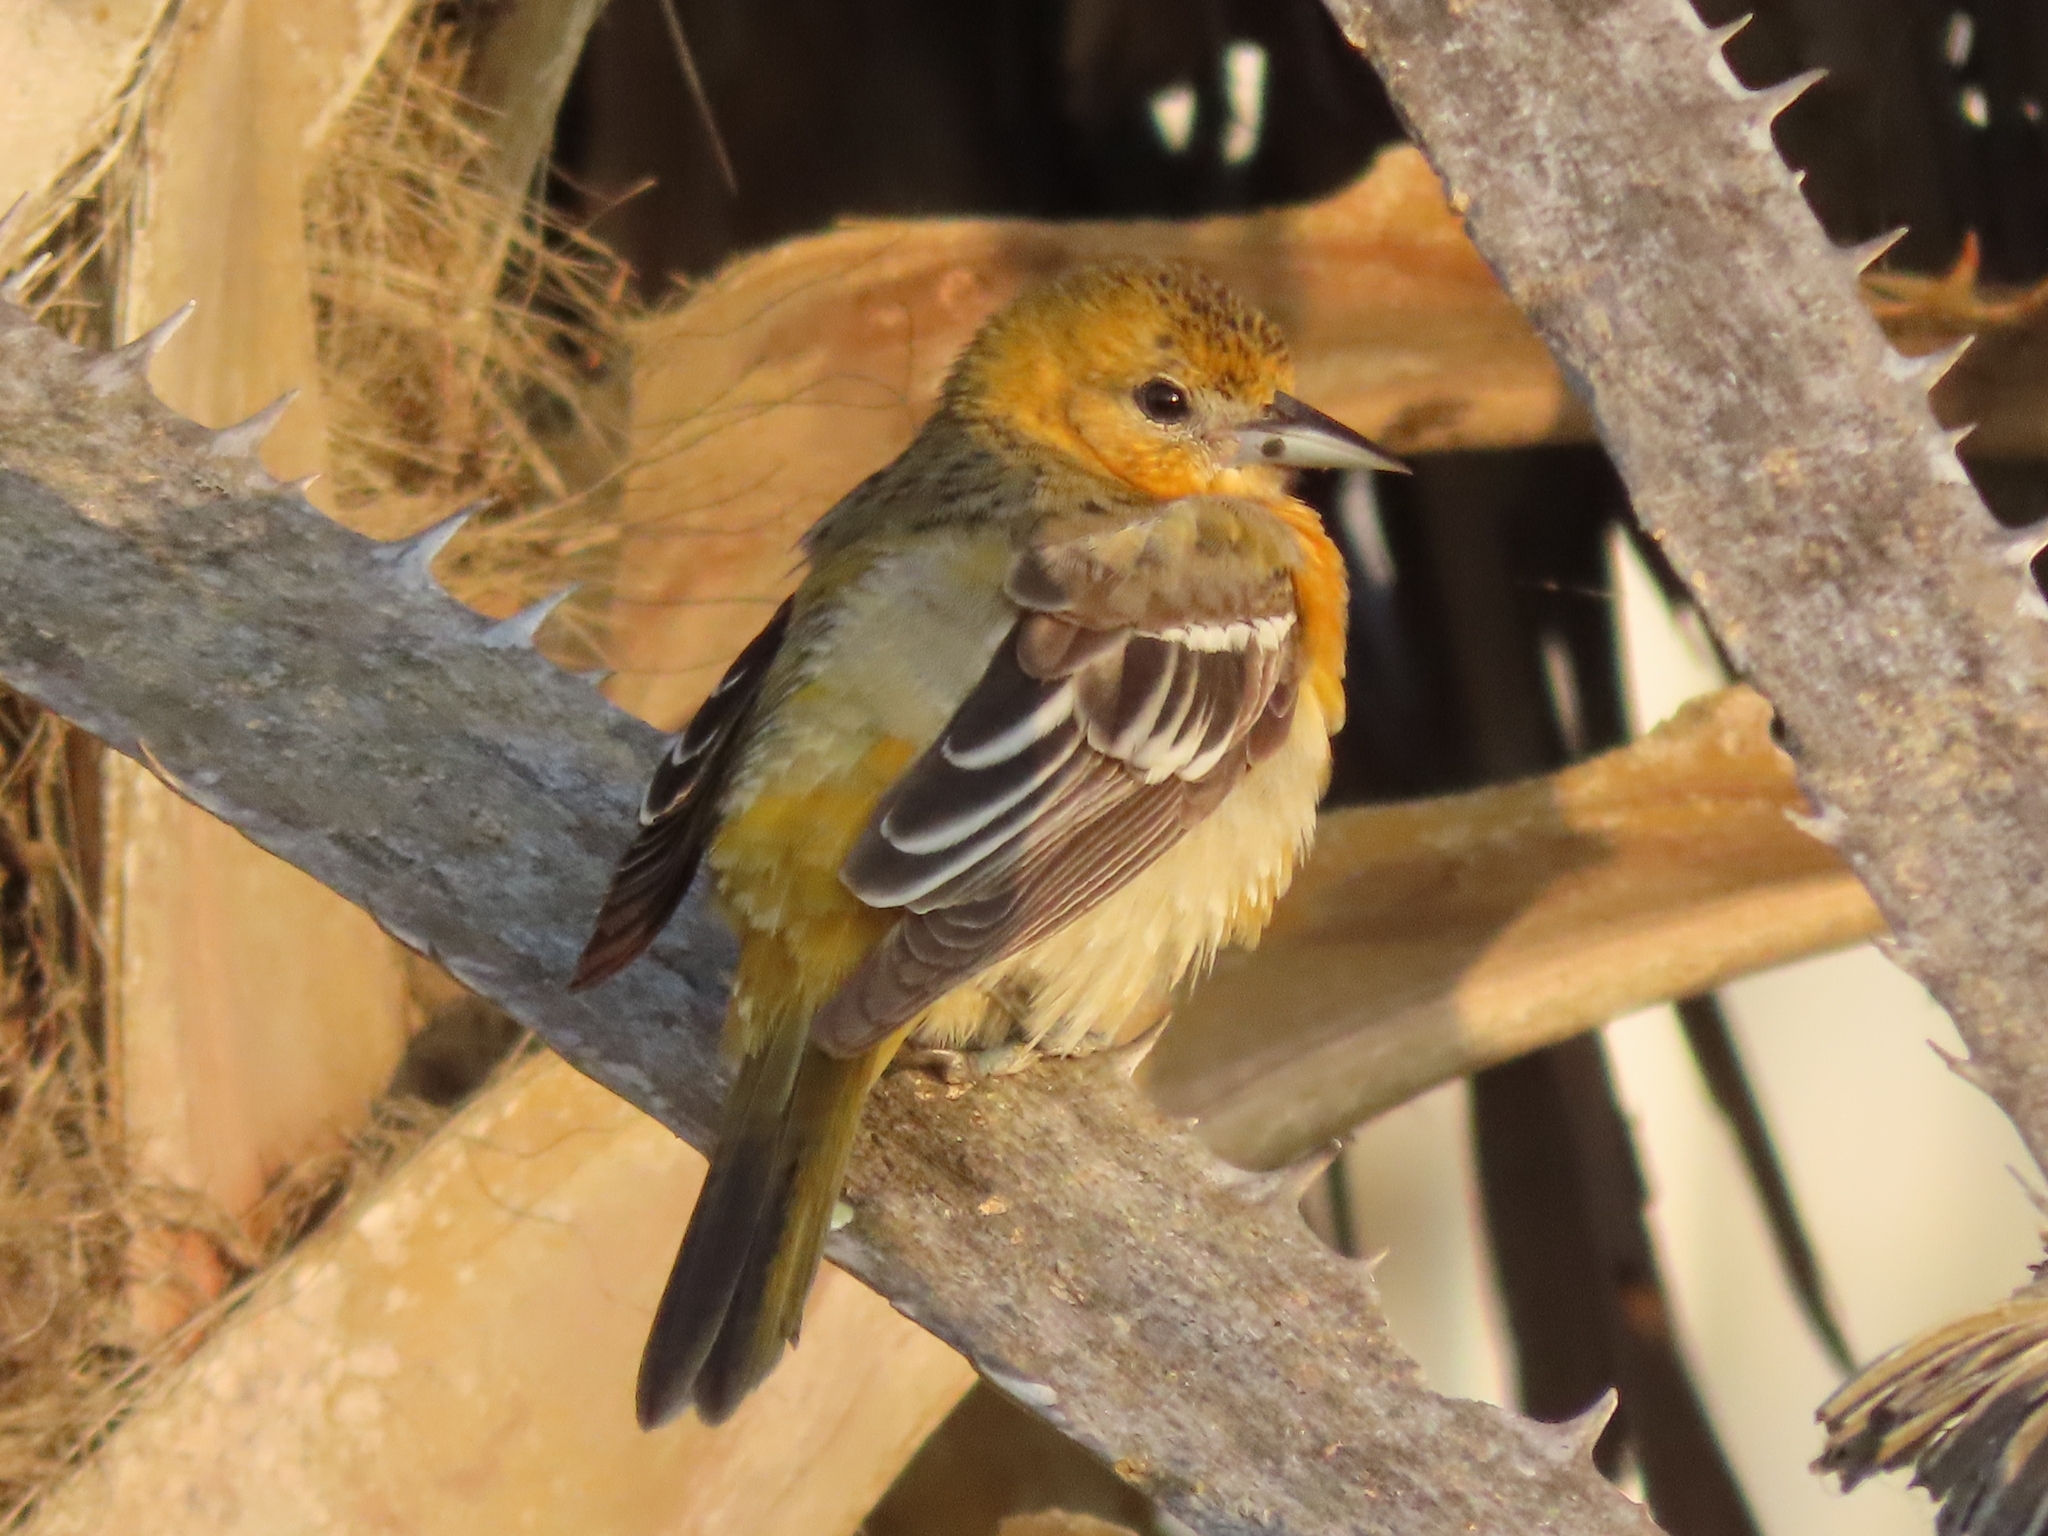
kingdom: Animalia
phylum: Chordata
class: Aves
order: Passeriformes
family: Icteridae
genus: Icterus
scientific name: Icterus galbula
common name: Baltimore oriole
